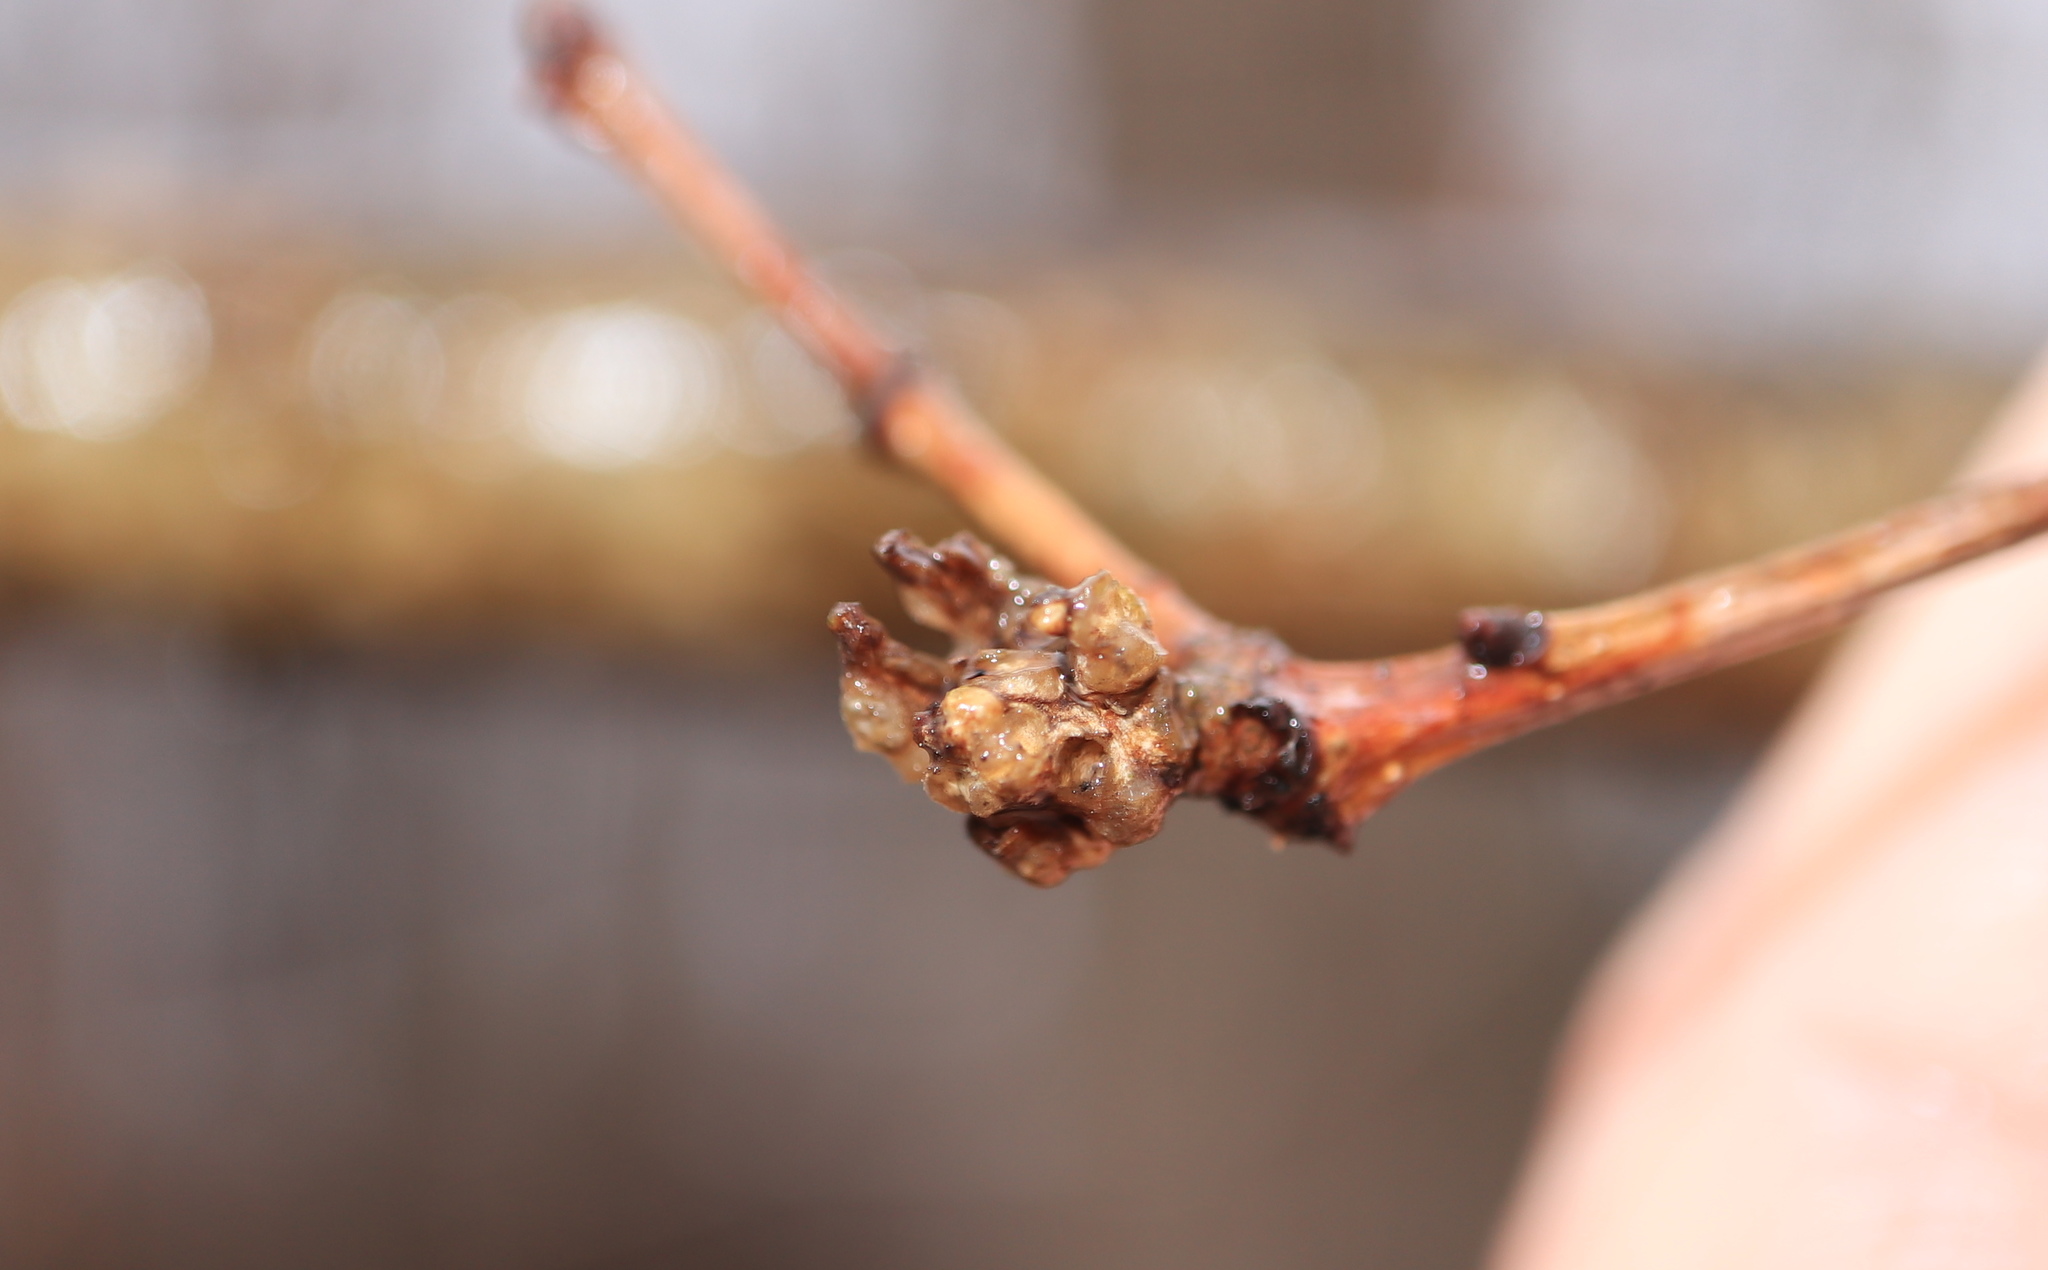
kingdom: Animalia
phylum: Arthropoda
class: Insecta
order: Hymenoptera
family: Cynipidae
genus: Neuroterus
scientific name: Neuroterus minutulus
